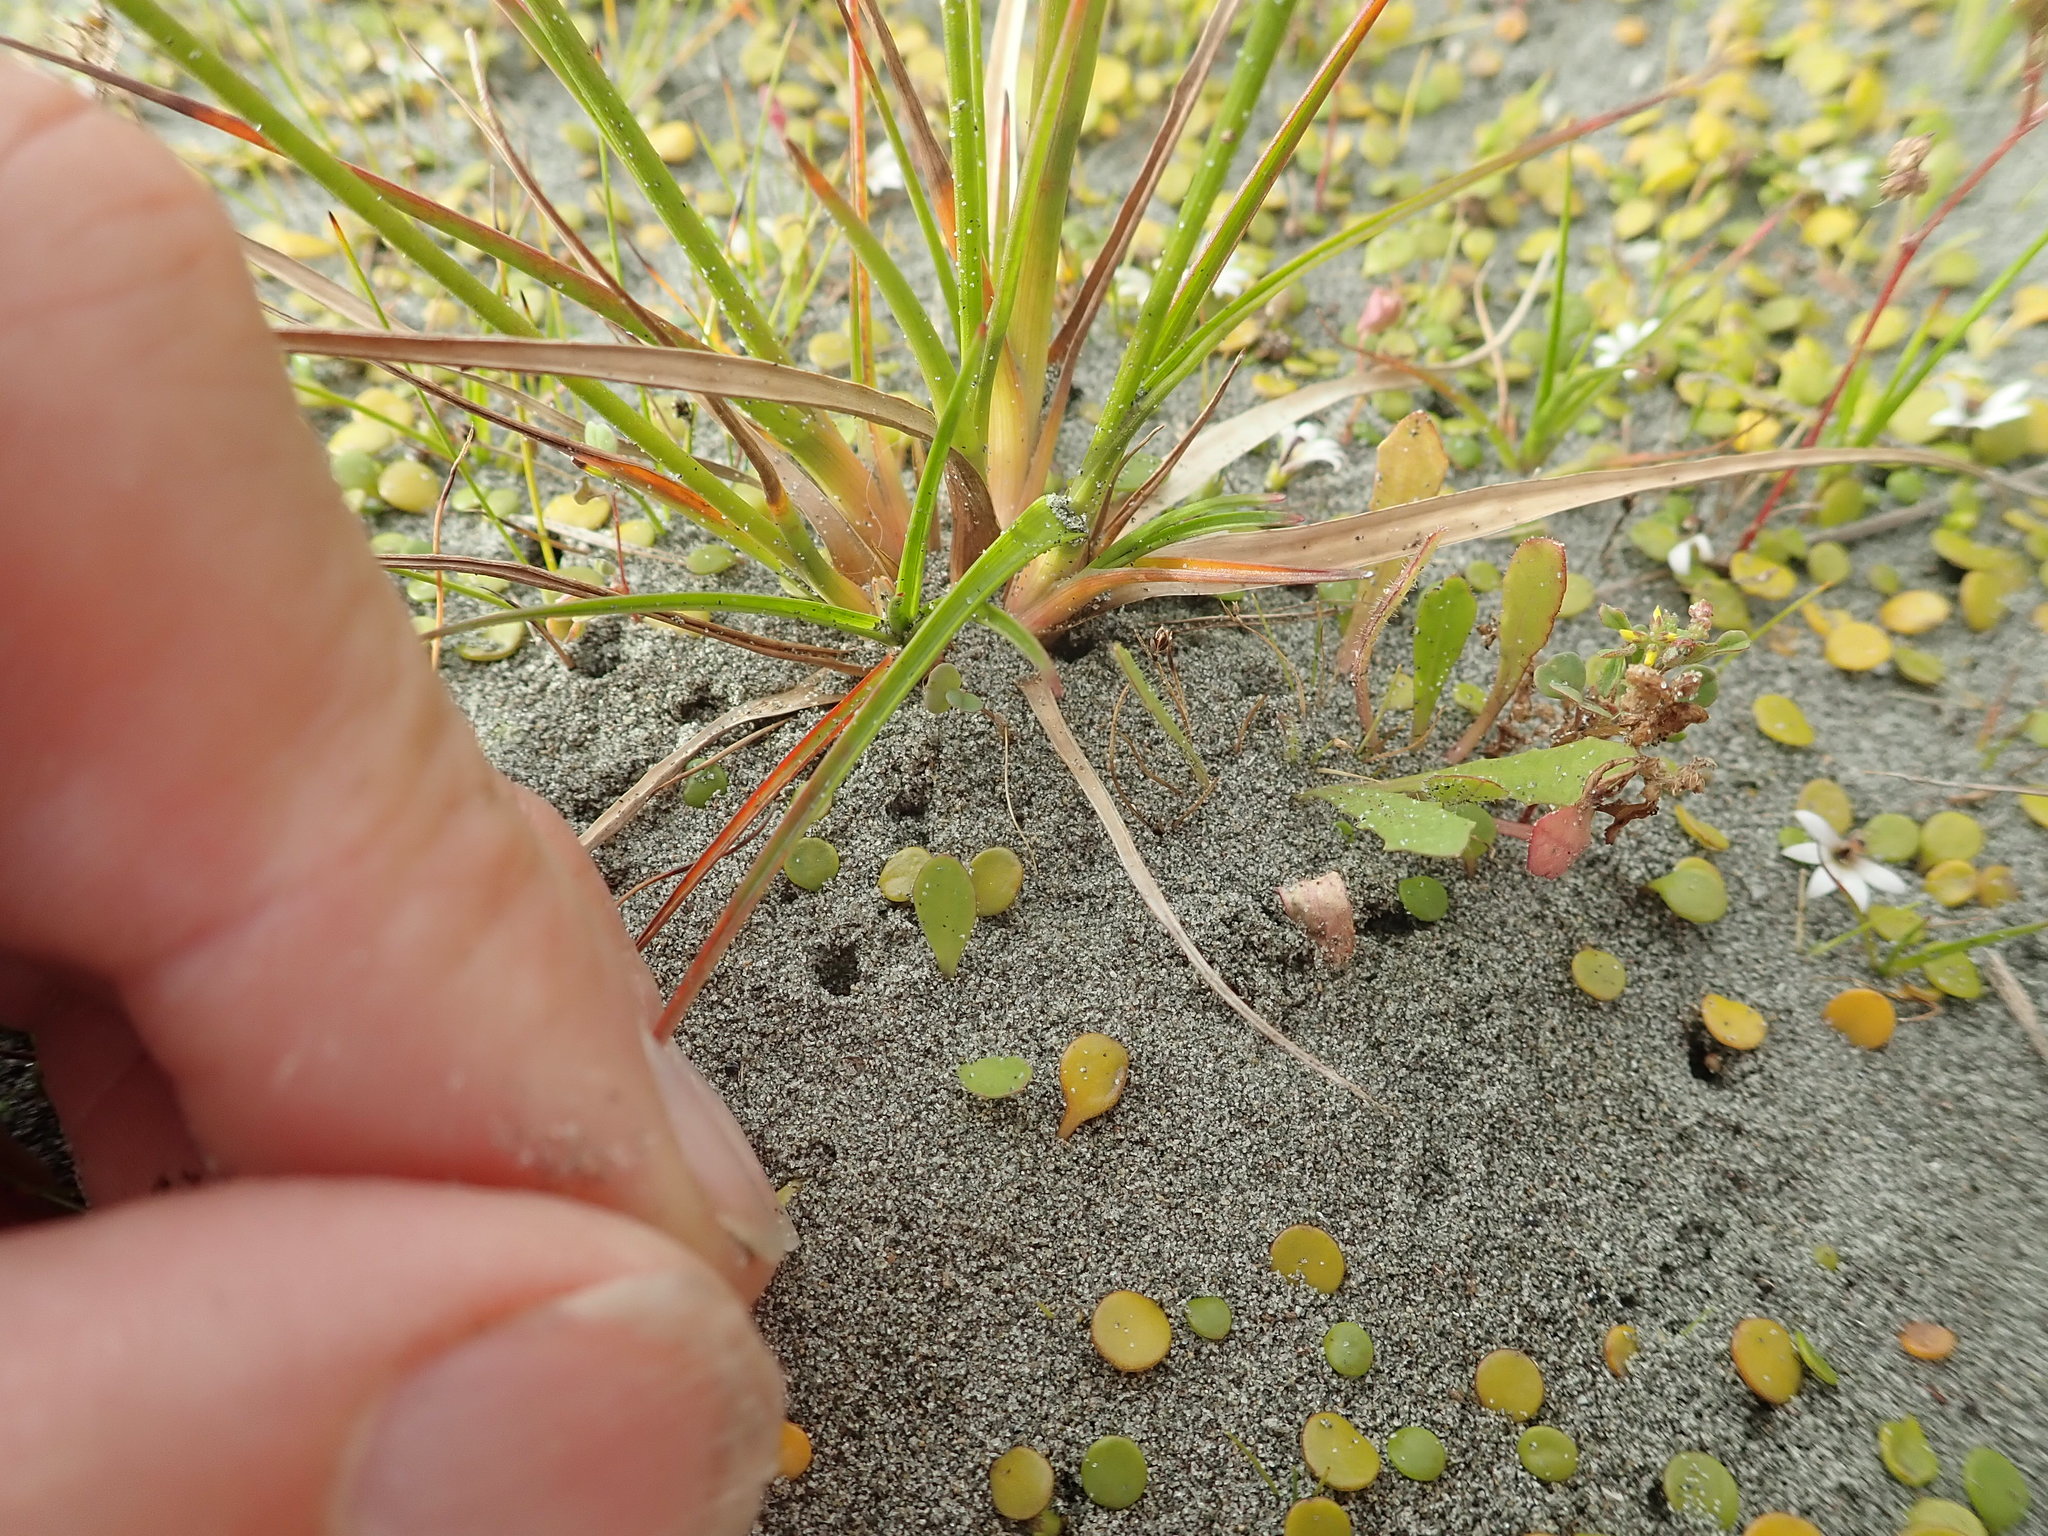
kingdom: Plantae
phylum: Tracheophyta
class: Liliopsida
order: Poales
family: Juncaceae
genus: Juncus
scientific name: Juncus caespiticius
